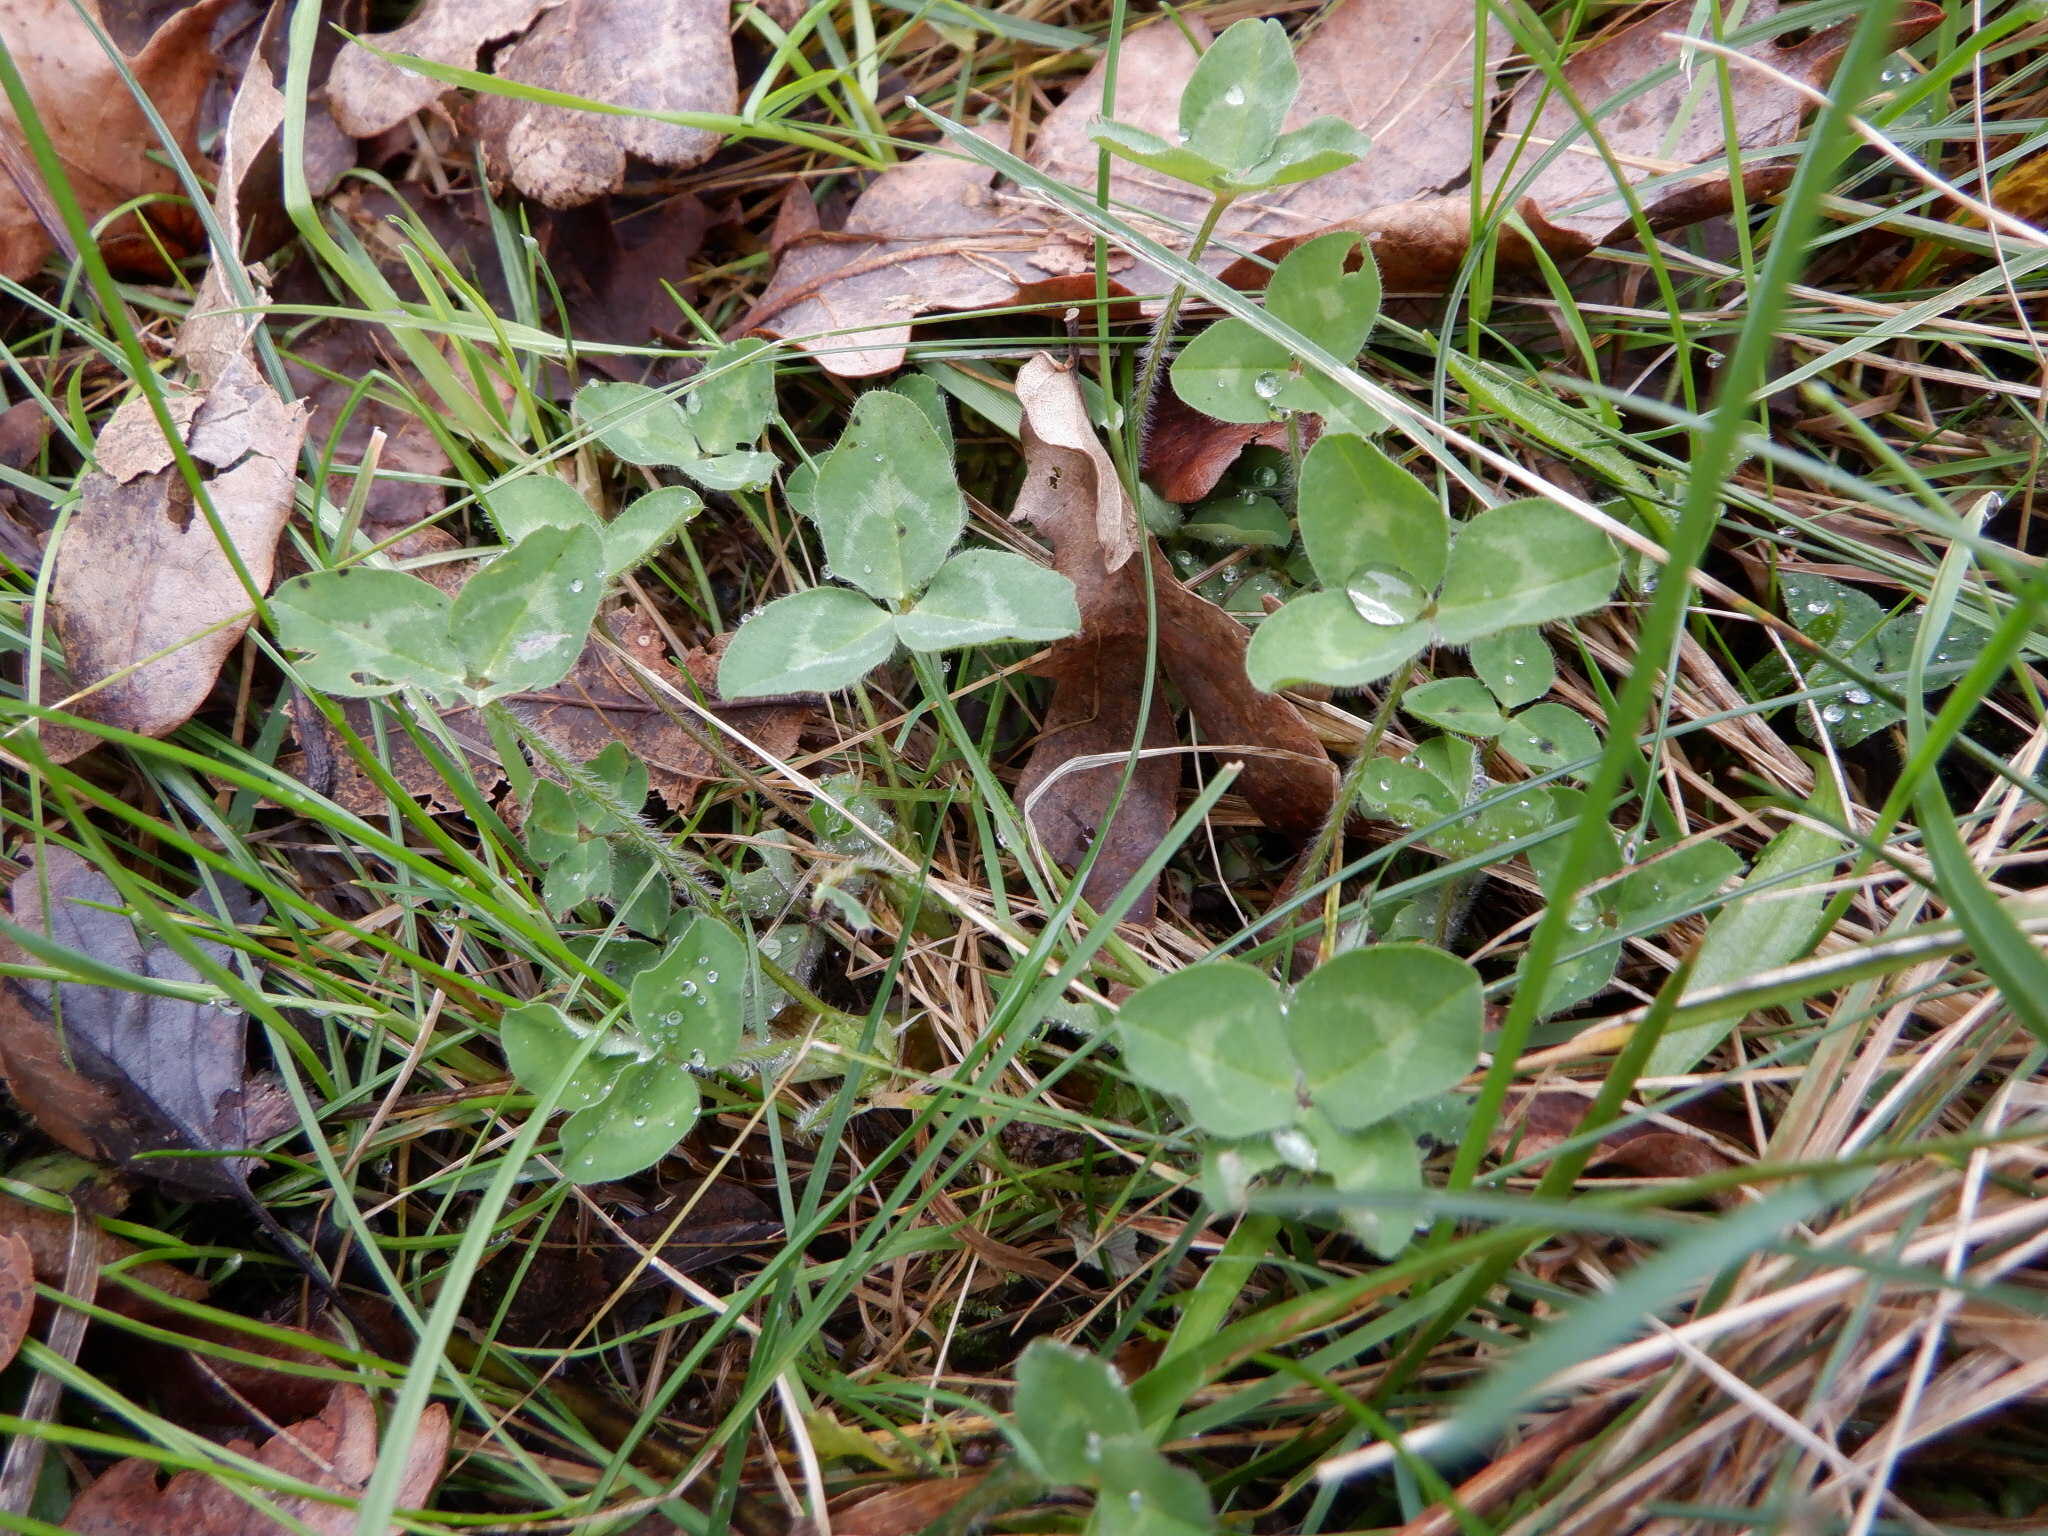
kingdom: Plantae
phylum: Tracheophyta
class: Magnoliopsida
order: Fabales
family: Fabaceae
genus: Trifolium
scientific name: Trifolium pratense
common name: Red clover
